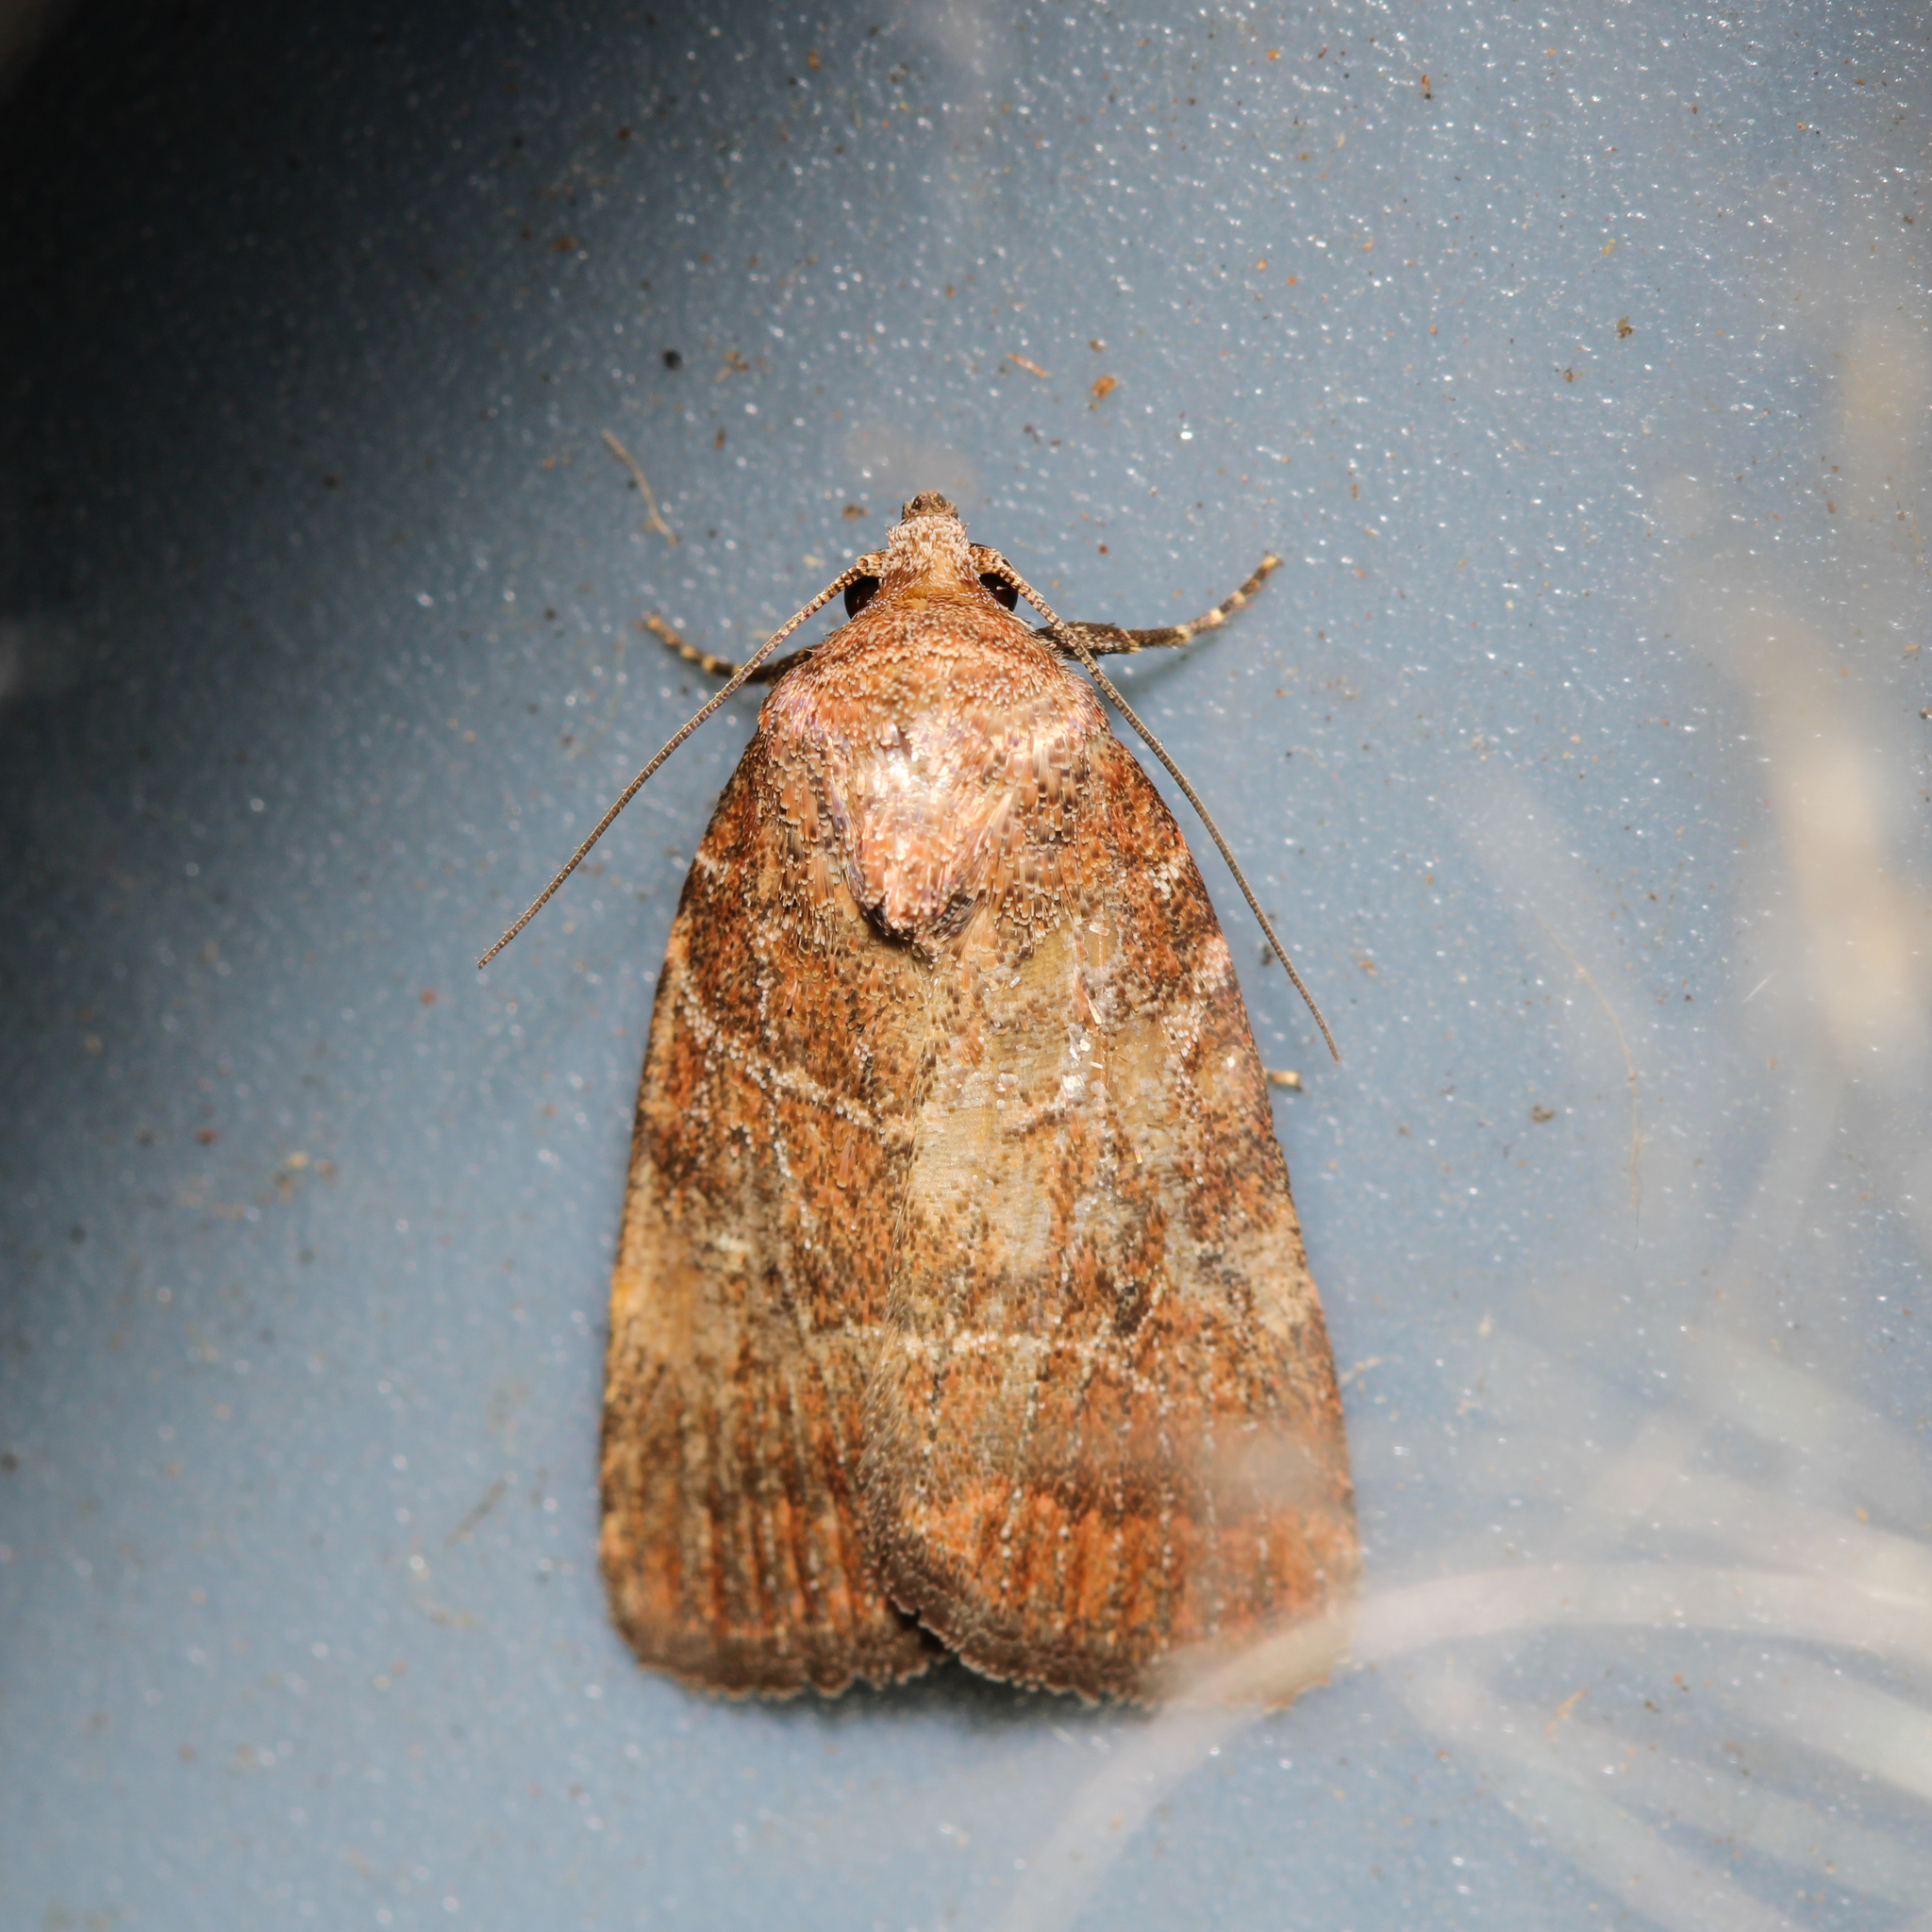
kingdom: Animalia
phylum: Arthropoda
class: Insecta
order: Lepidoptera
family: Noctuidae
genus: Elaphria
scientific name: Elaphria grata
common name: Grateful midget moth
